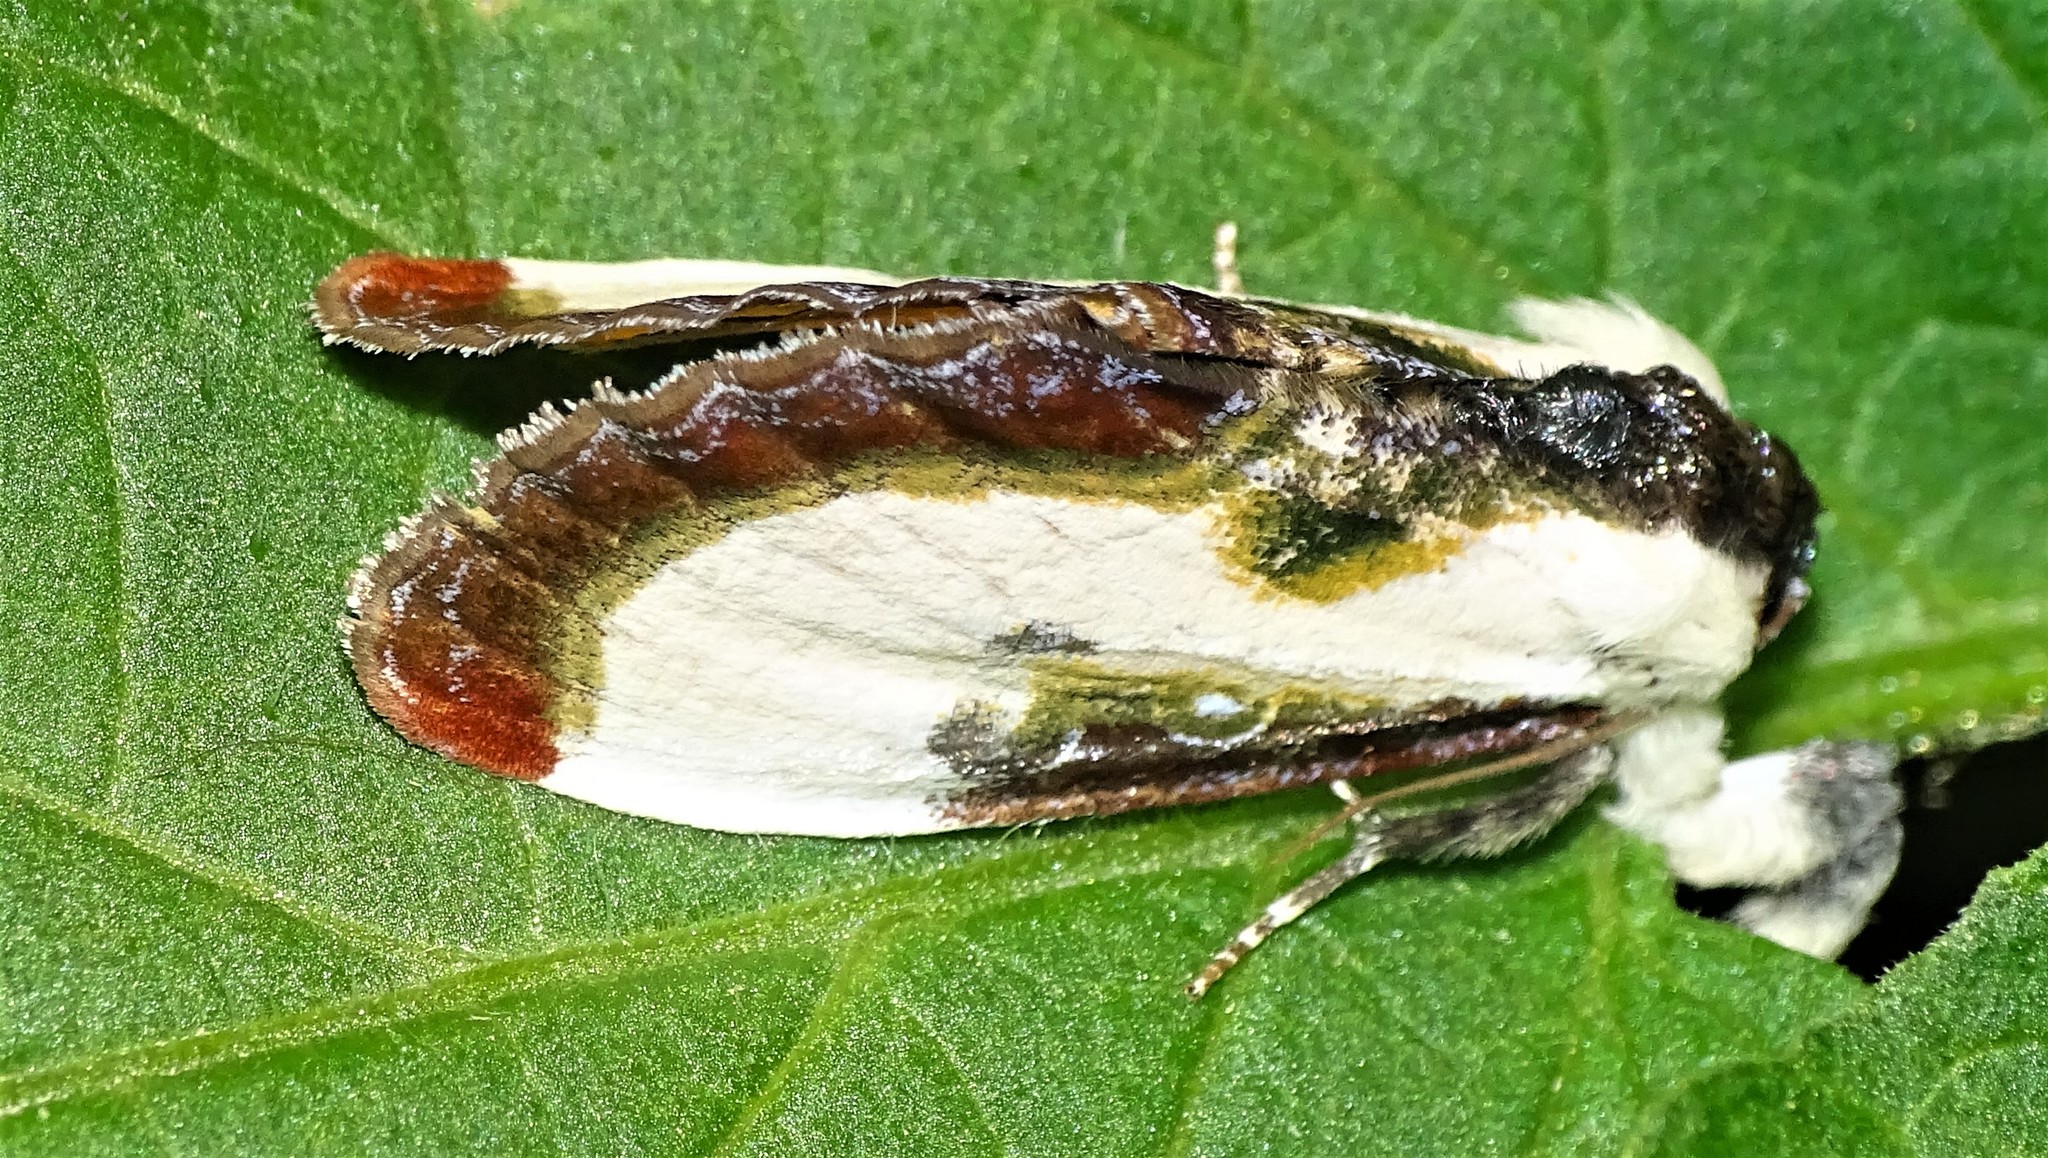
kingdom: Animalia
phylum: Arthropoda
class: Insecta
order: Lepidoptera
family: Noctuidae
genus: Eudryas
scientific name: Eudryas grata
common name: Beautiful wood-nymph
